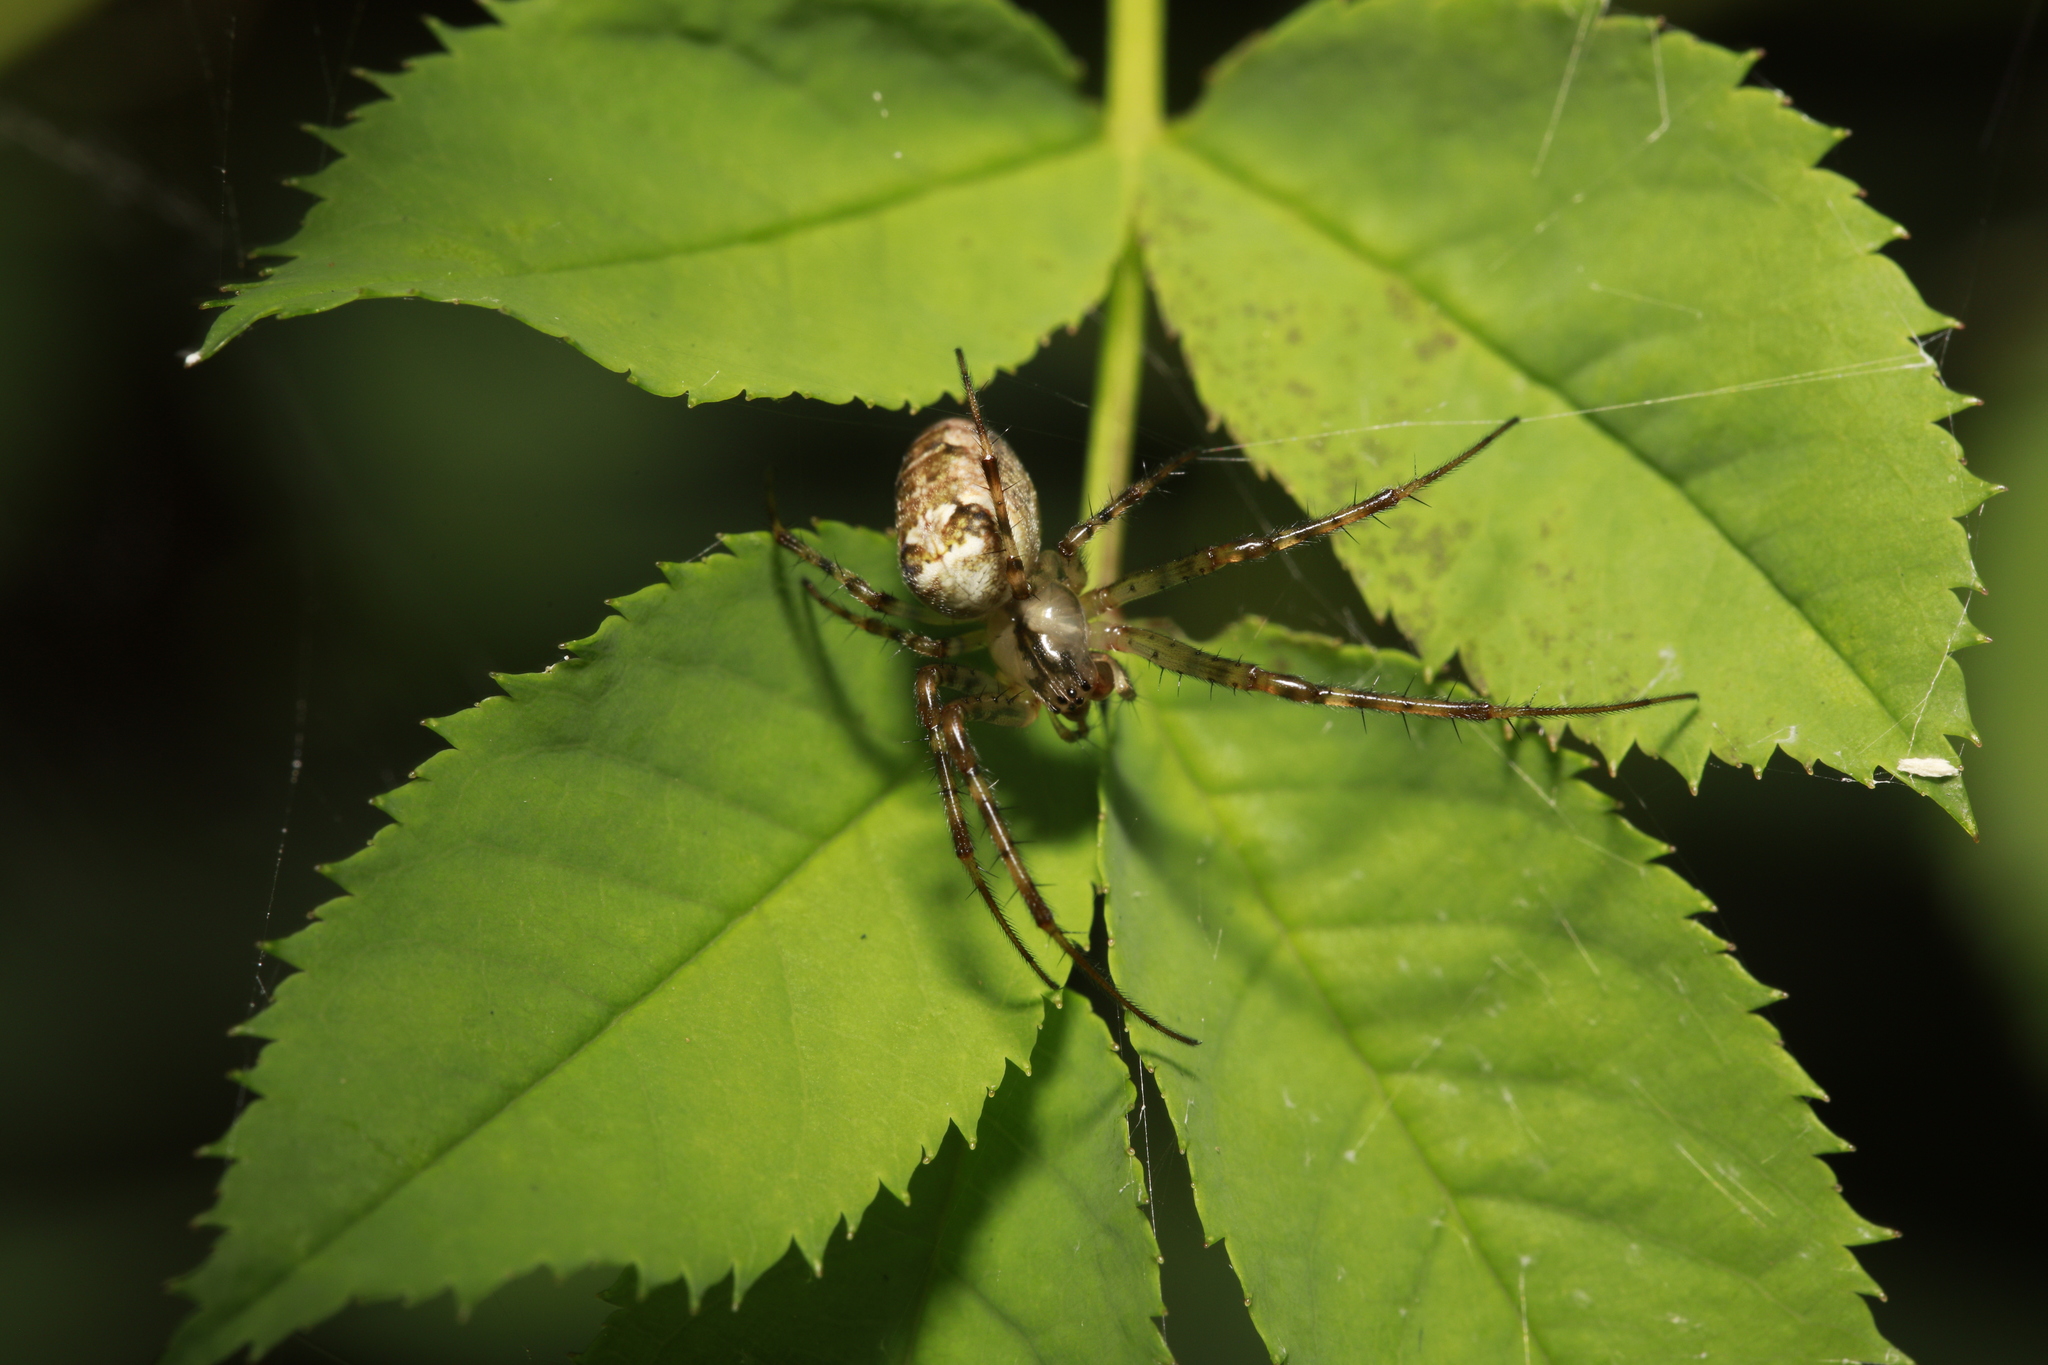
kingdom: Animalia
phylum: Arthropoda
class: Arachnida
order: Araneae
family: Tetragnathidae
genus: Metellina
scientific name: Metellina segmentata
